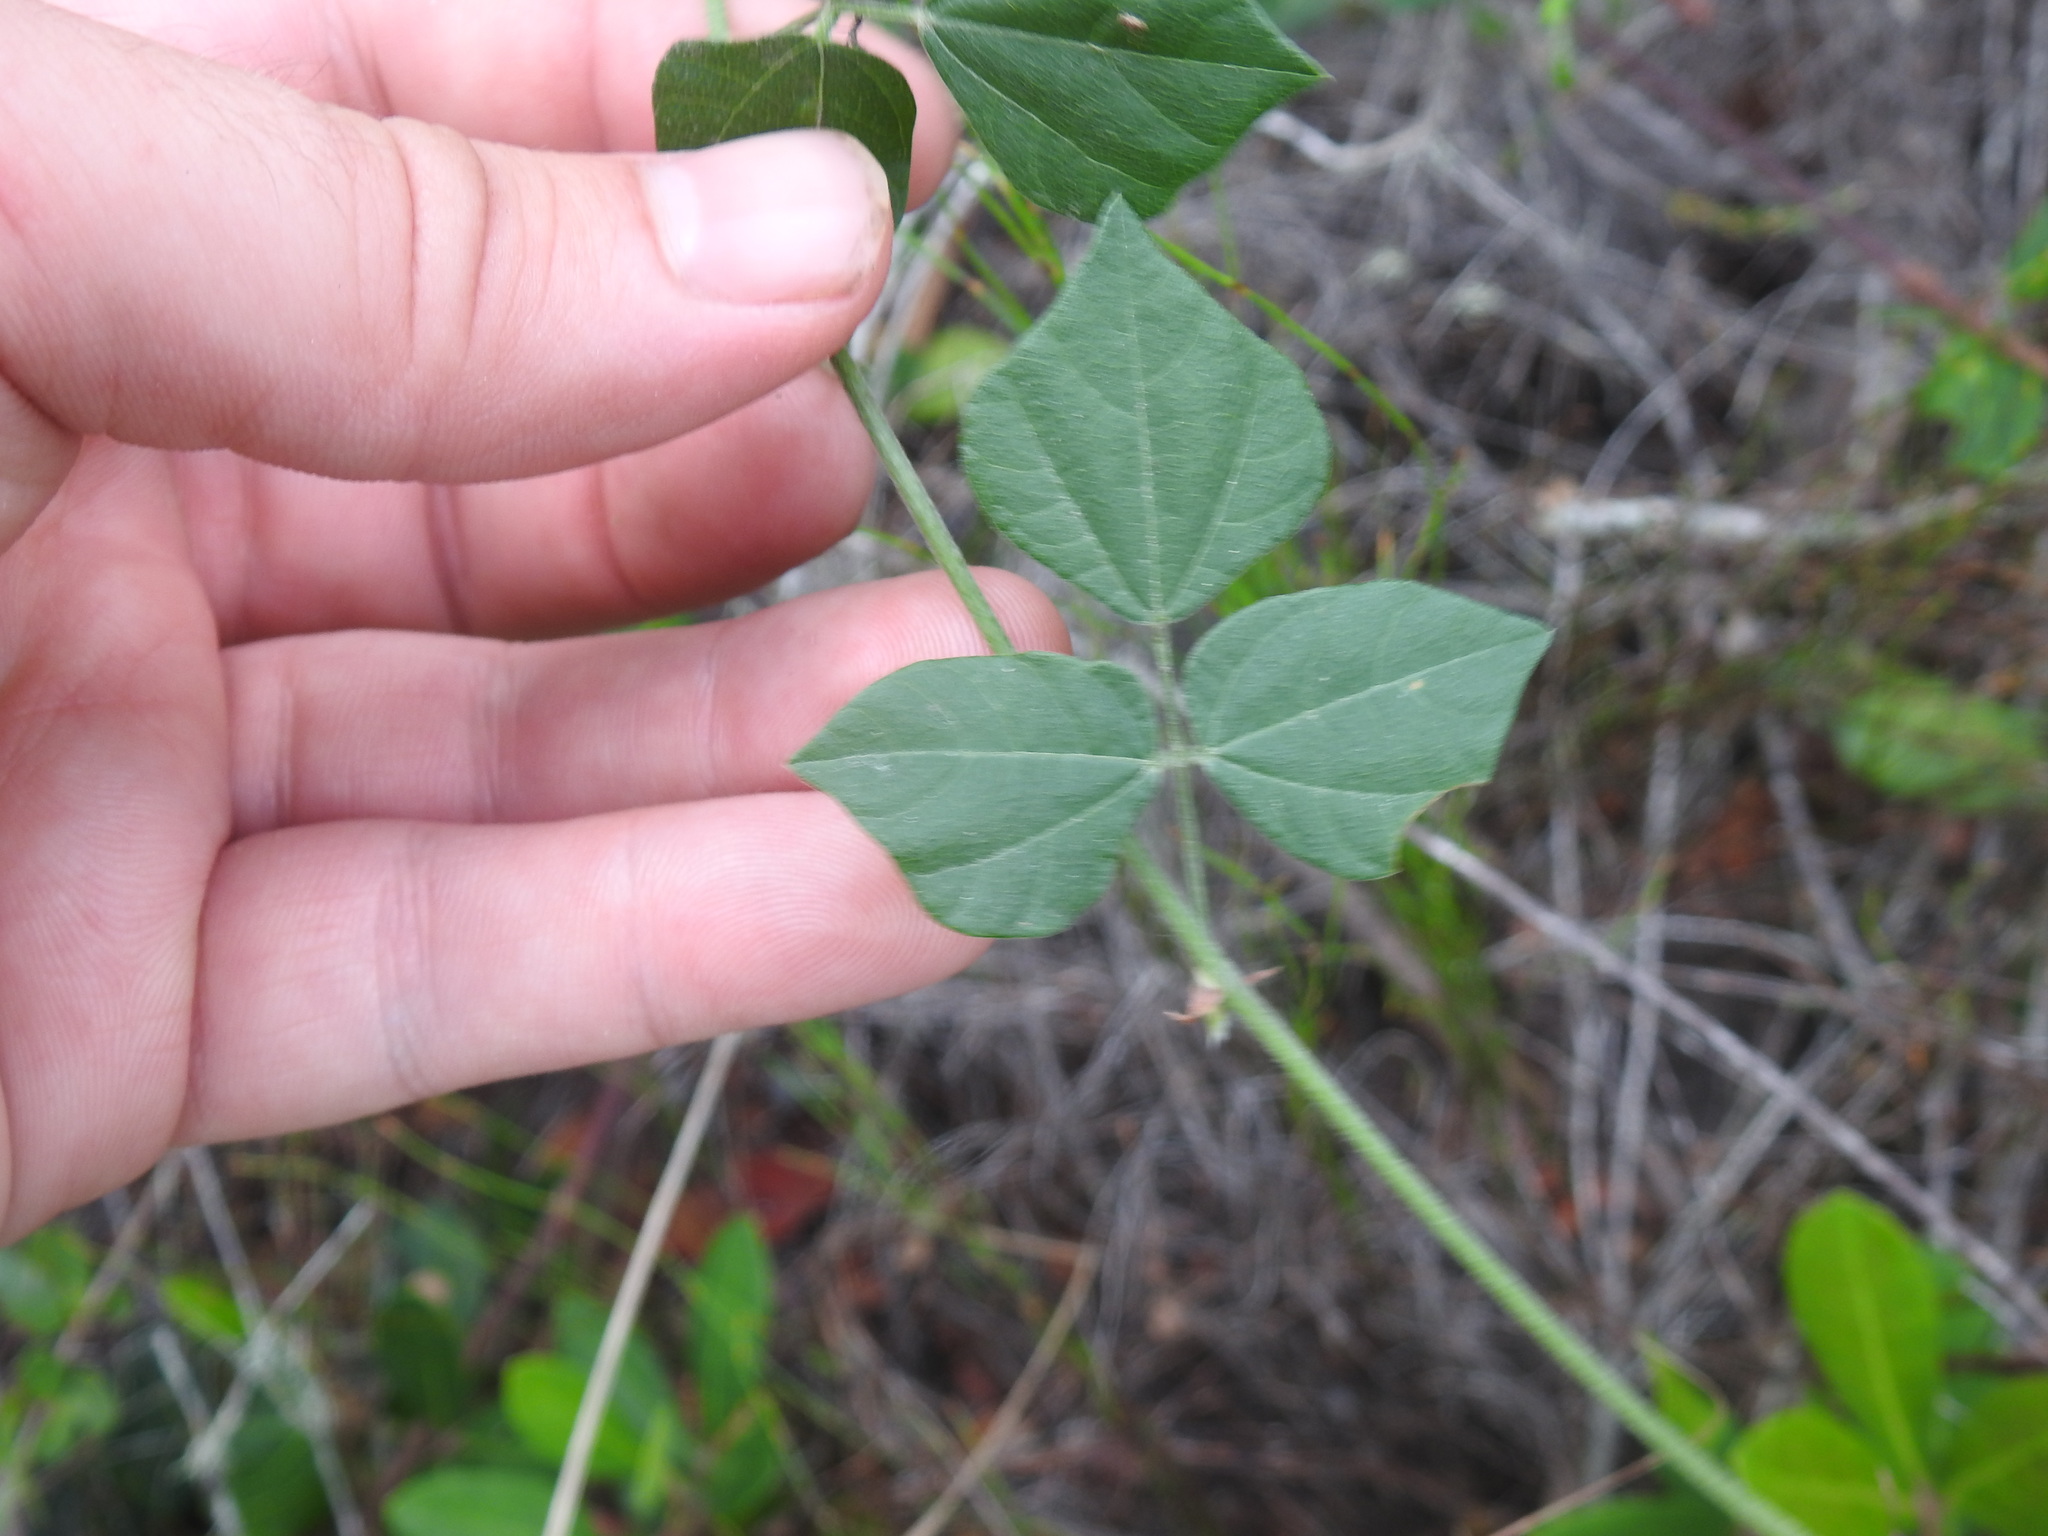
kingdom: Plantae
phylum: Tracheophyta
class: Magnoliopsida
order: Fabales
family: Fabaceae
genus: Rhynchosia
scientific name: Rhynchosia caribaea
